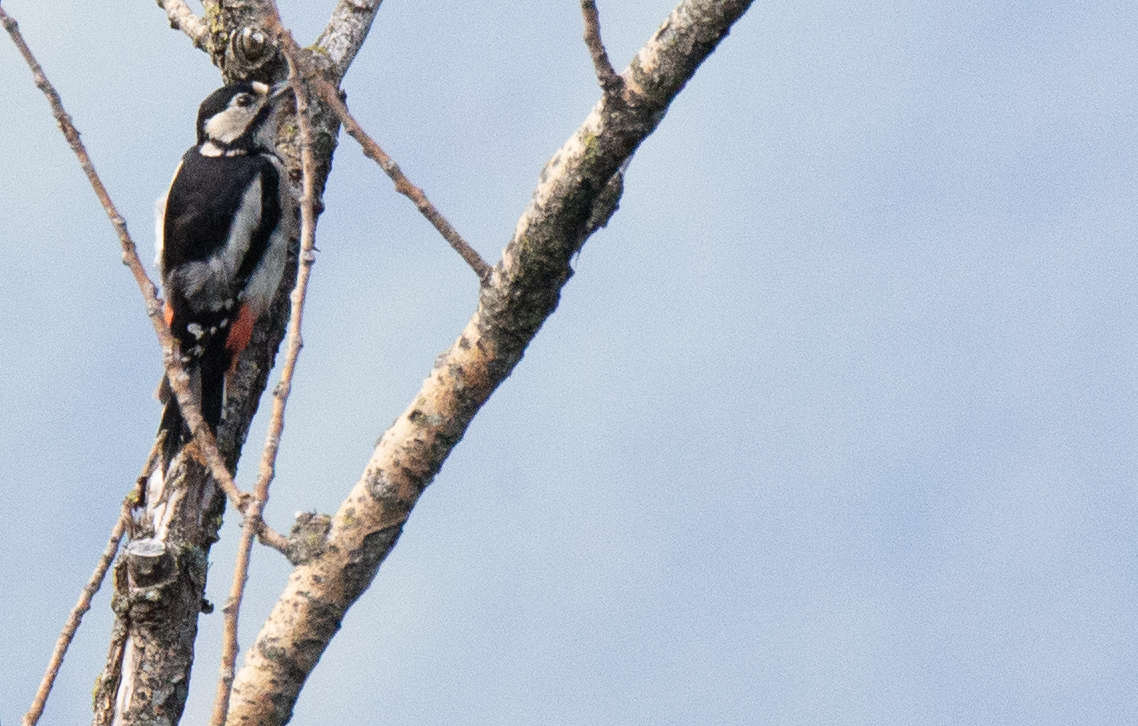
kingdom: Animalia
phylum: Chordata
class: Aves
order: Piciformes
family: Picidae
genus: Dendrocopos
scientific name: Dendrocopos major
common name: Great spotted woodpecker
